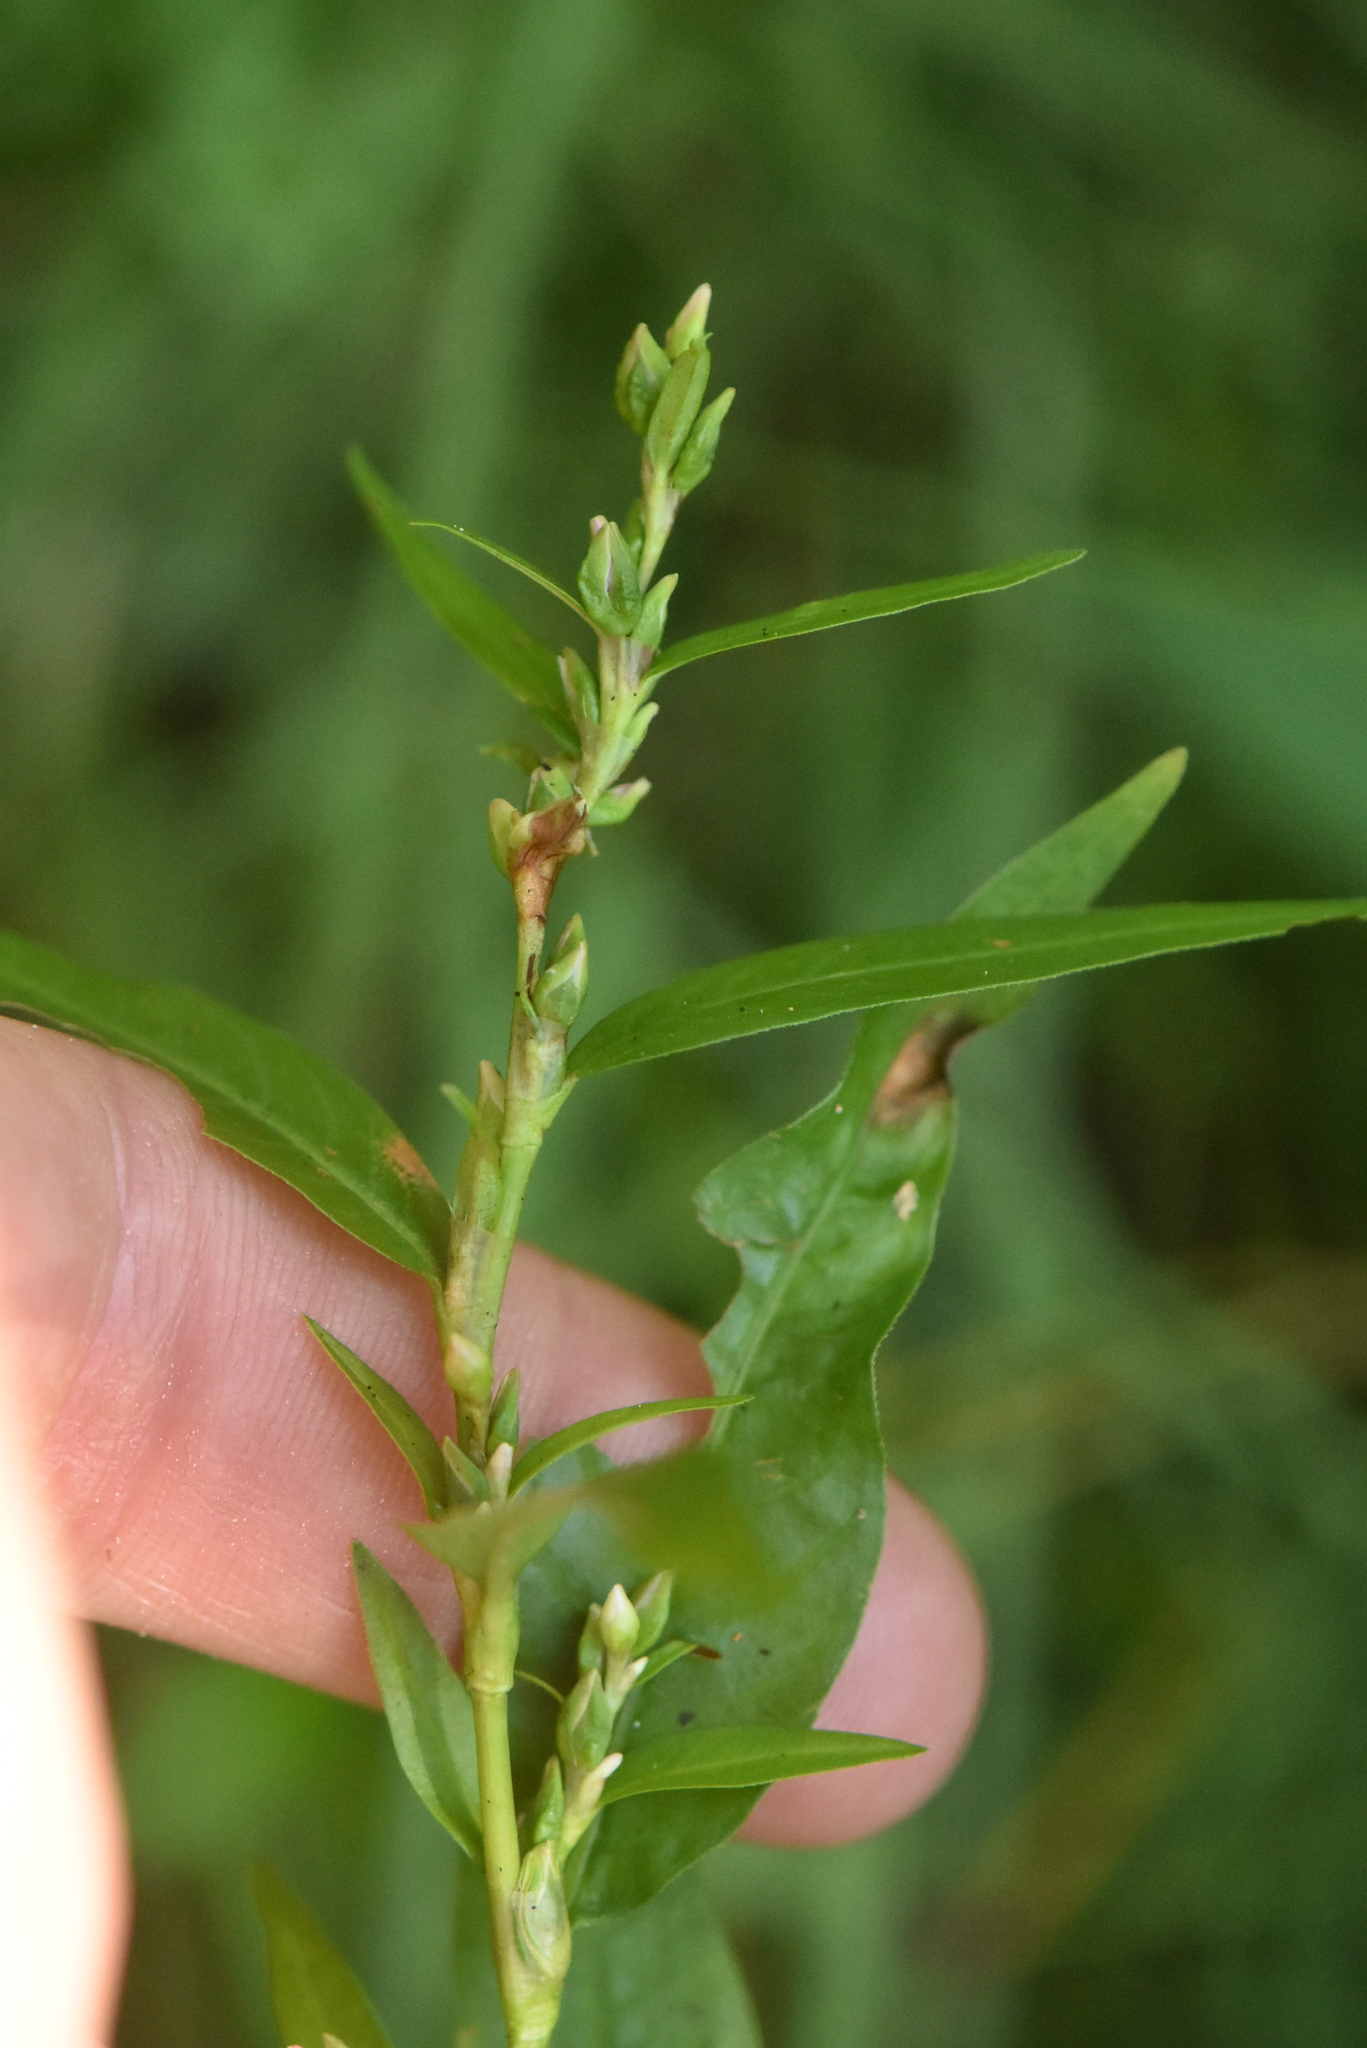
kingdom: Plantae
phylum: Tracheophyta
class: Magnoliopsida
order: Caryophyllales
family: Polygonaceae
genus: Persicaria
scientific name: Persicaria hydropiper
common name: Water-pepper
